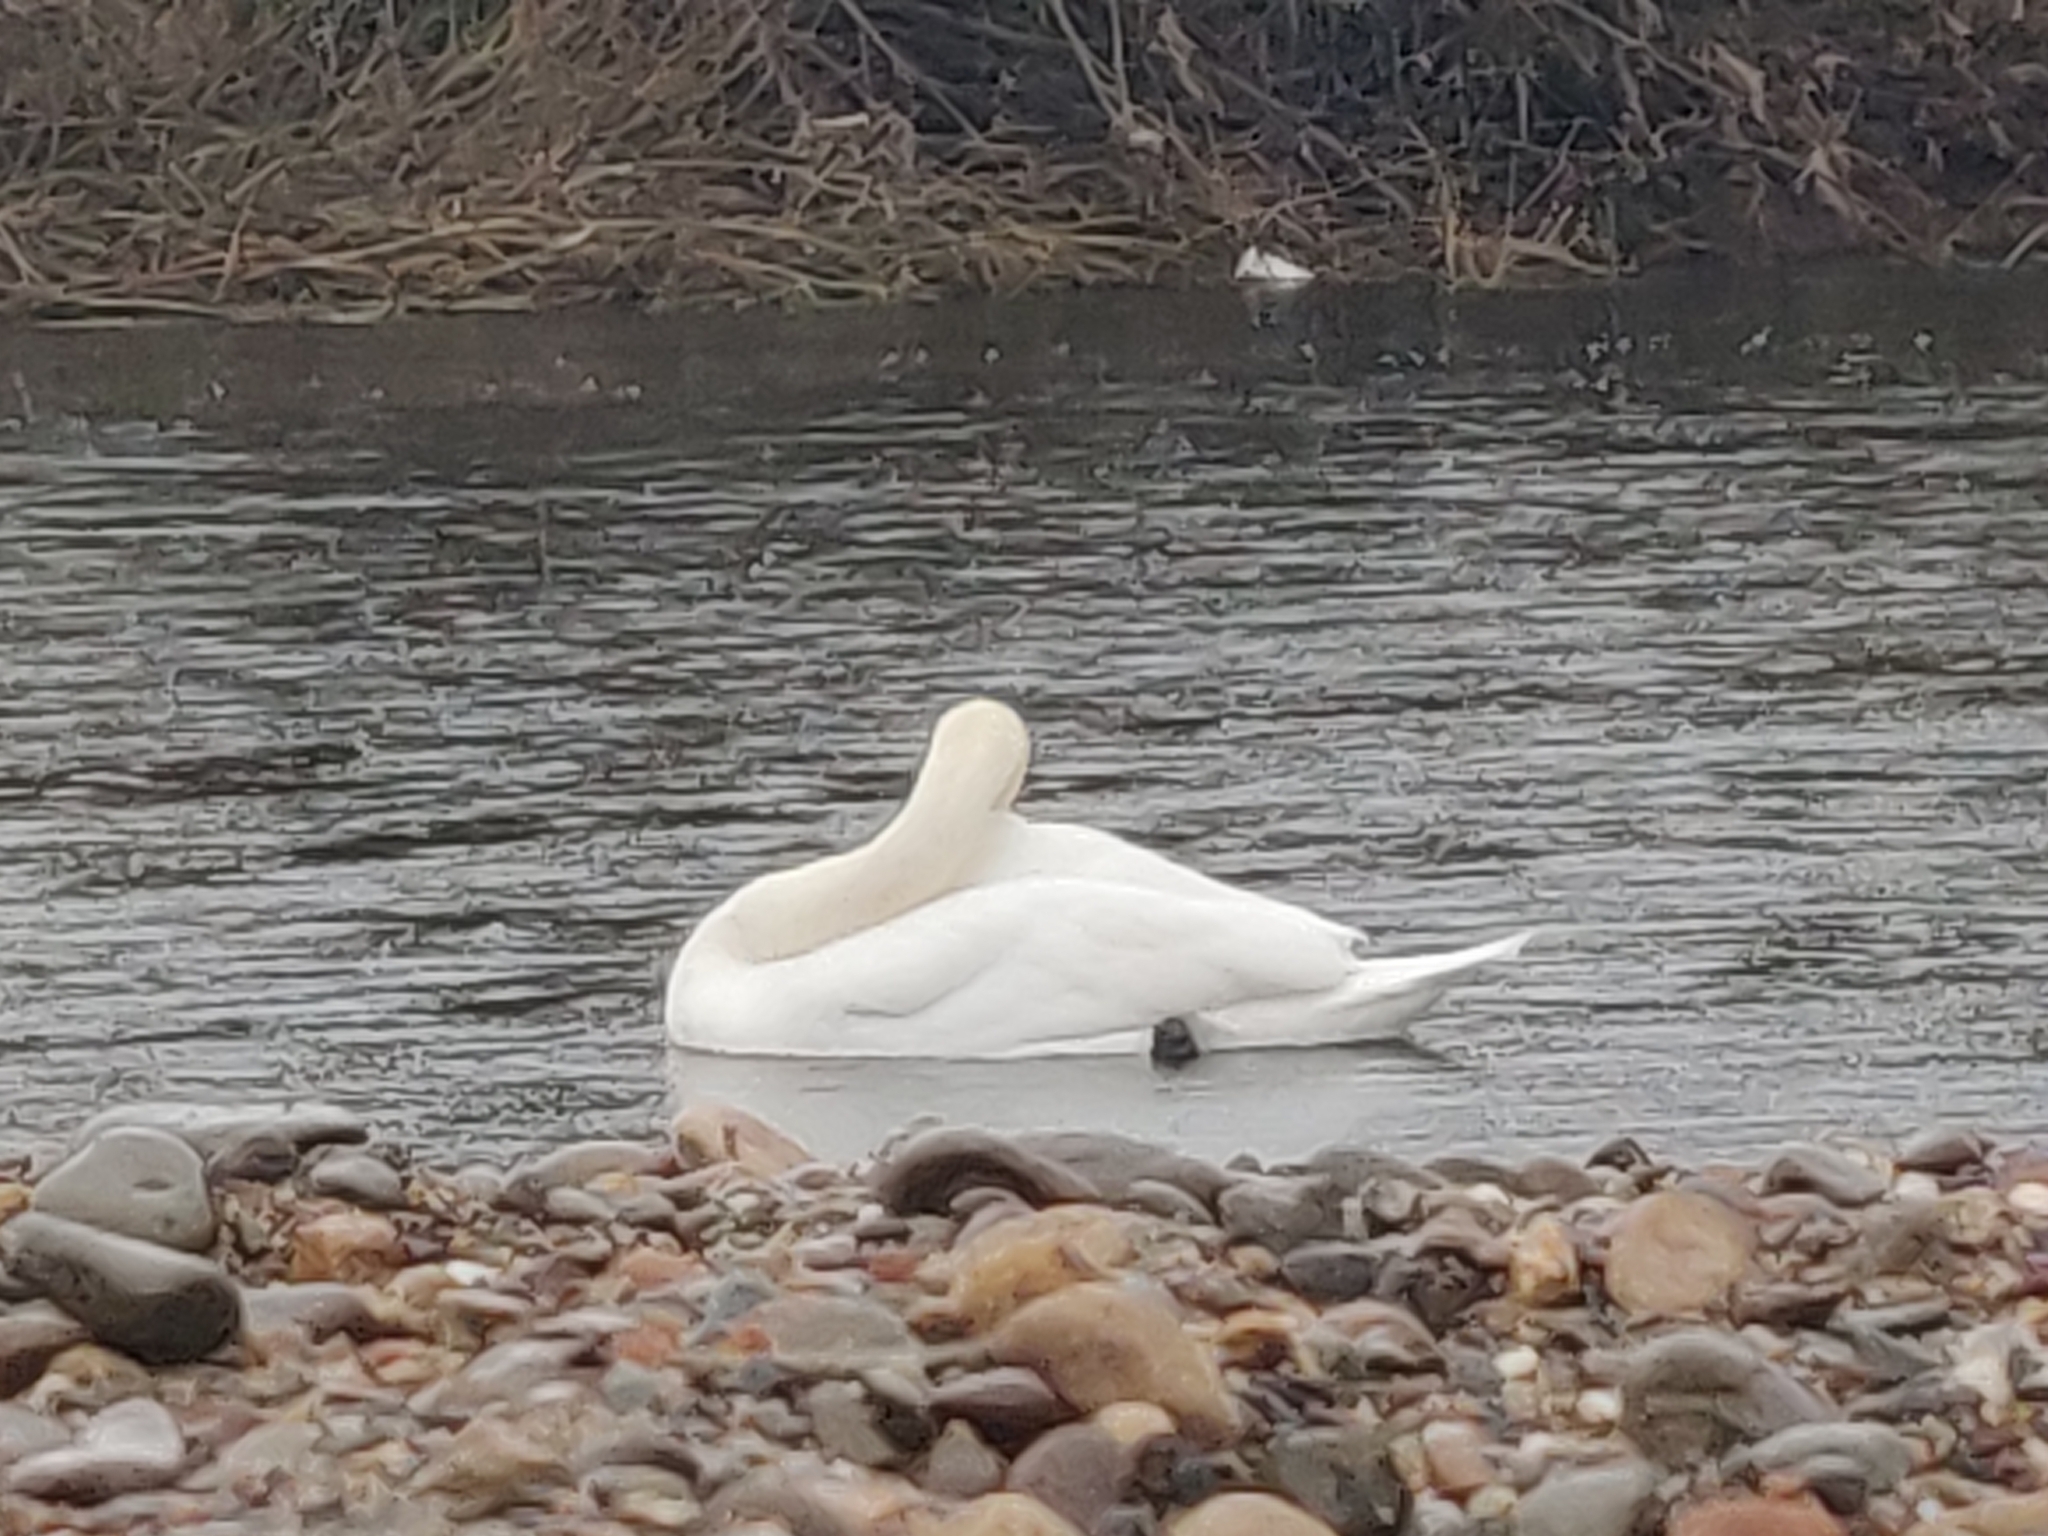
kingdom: Animalia
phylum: Chordata
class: Aves
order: Anseriformes
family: Anatidae
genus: Cygnus
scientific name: Cygnus olor
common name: Mute swan
